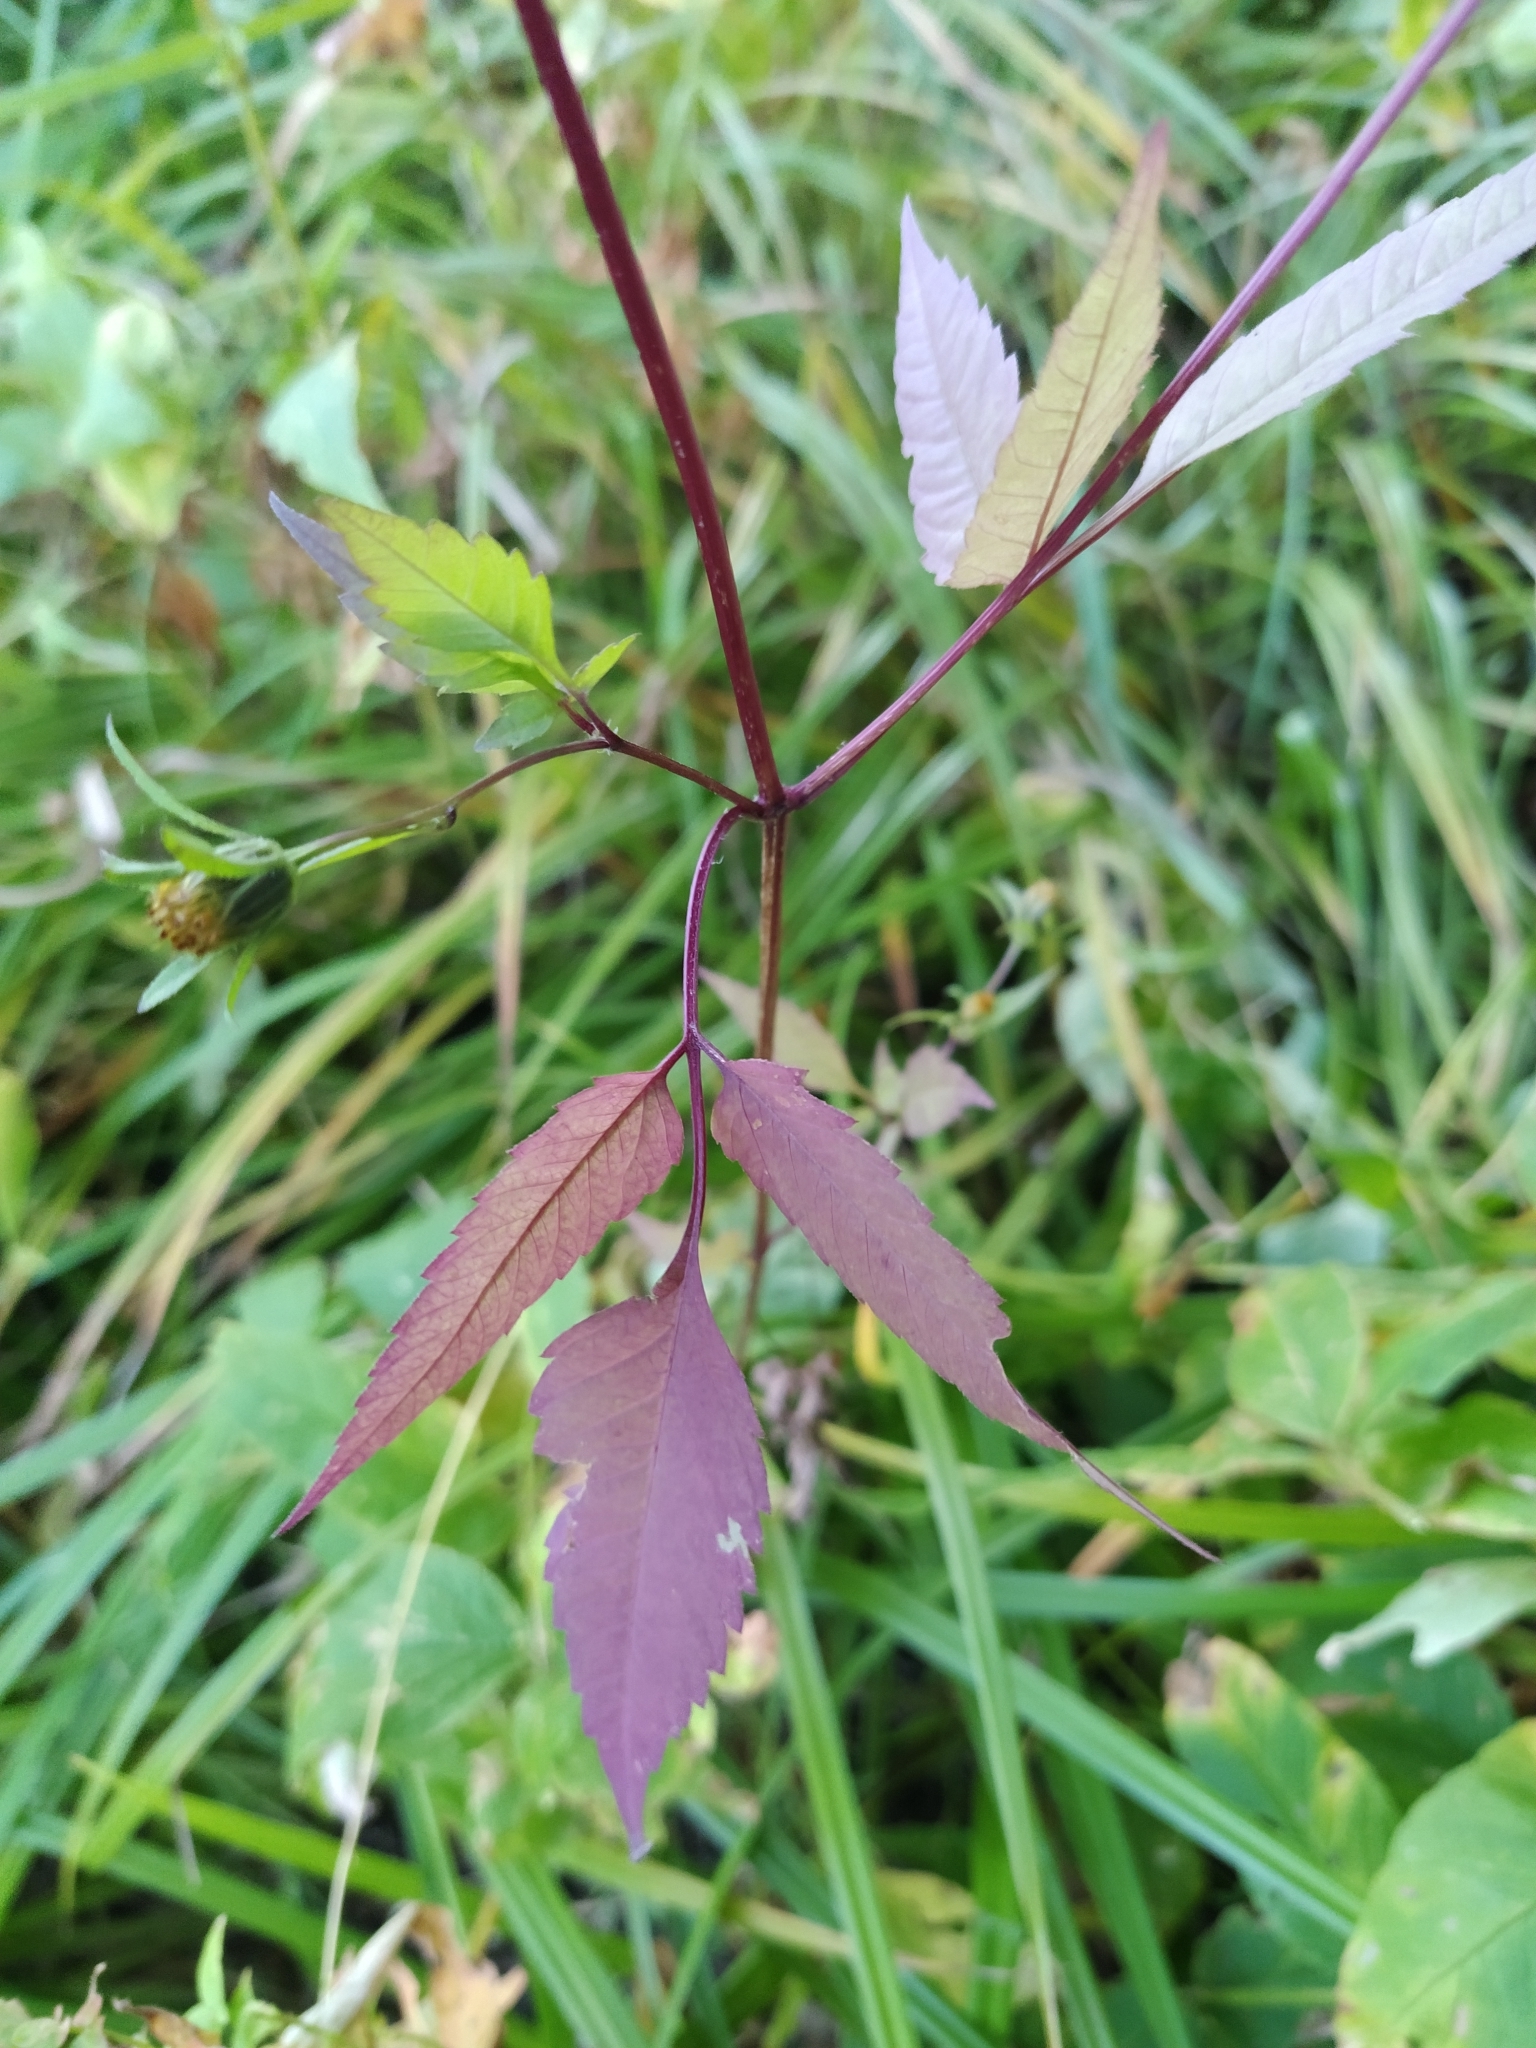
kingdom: Plantae
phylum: Tracheophyta
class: Magnoliopsida
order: Asterales
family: Asteraceae
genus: Bidens
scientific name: Bidens frondosa
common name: Beggarticks
